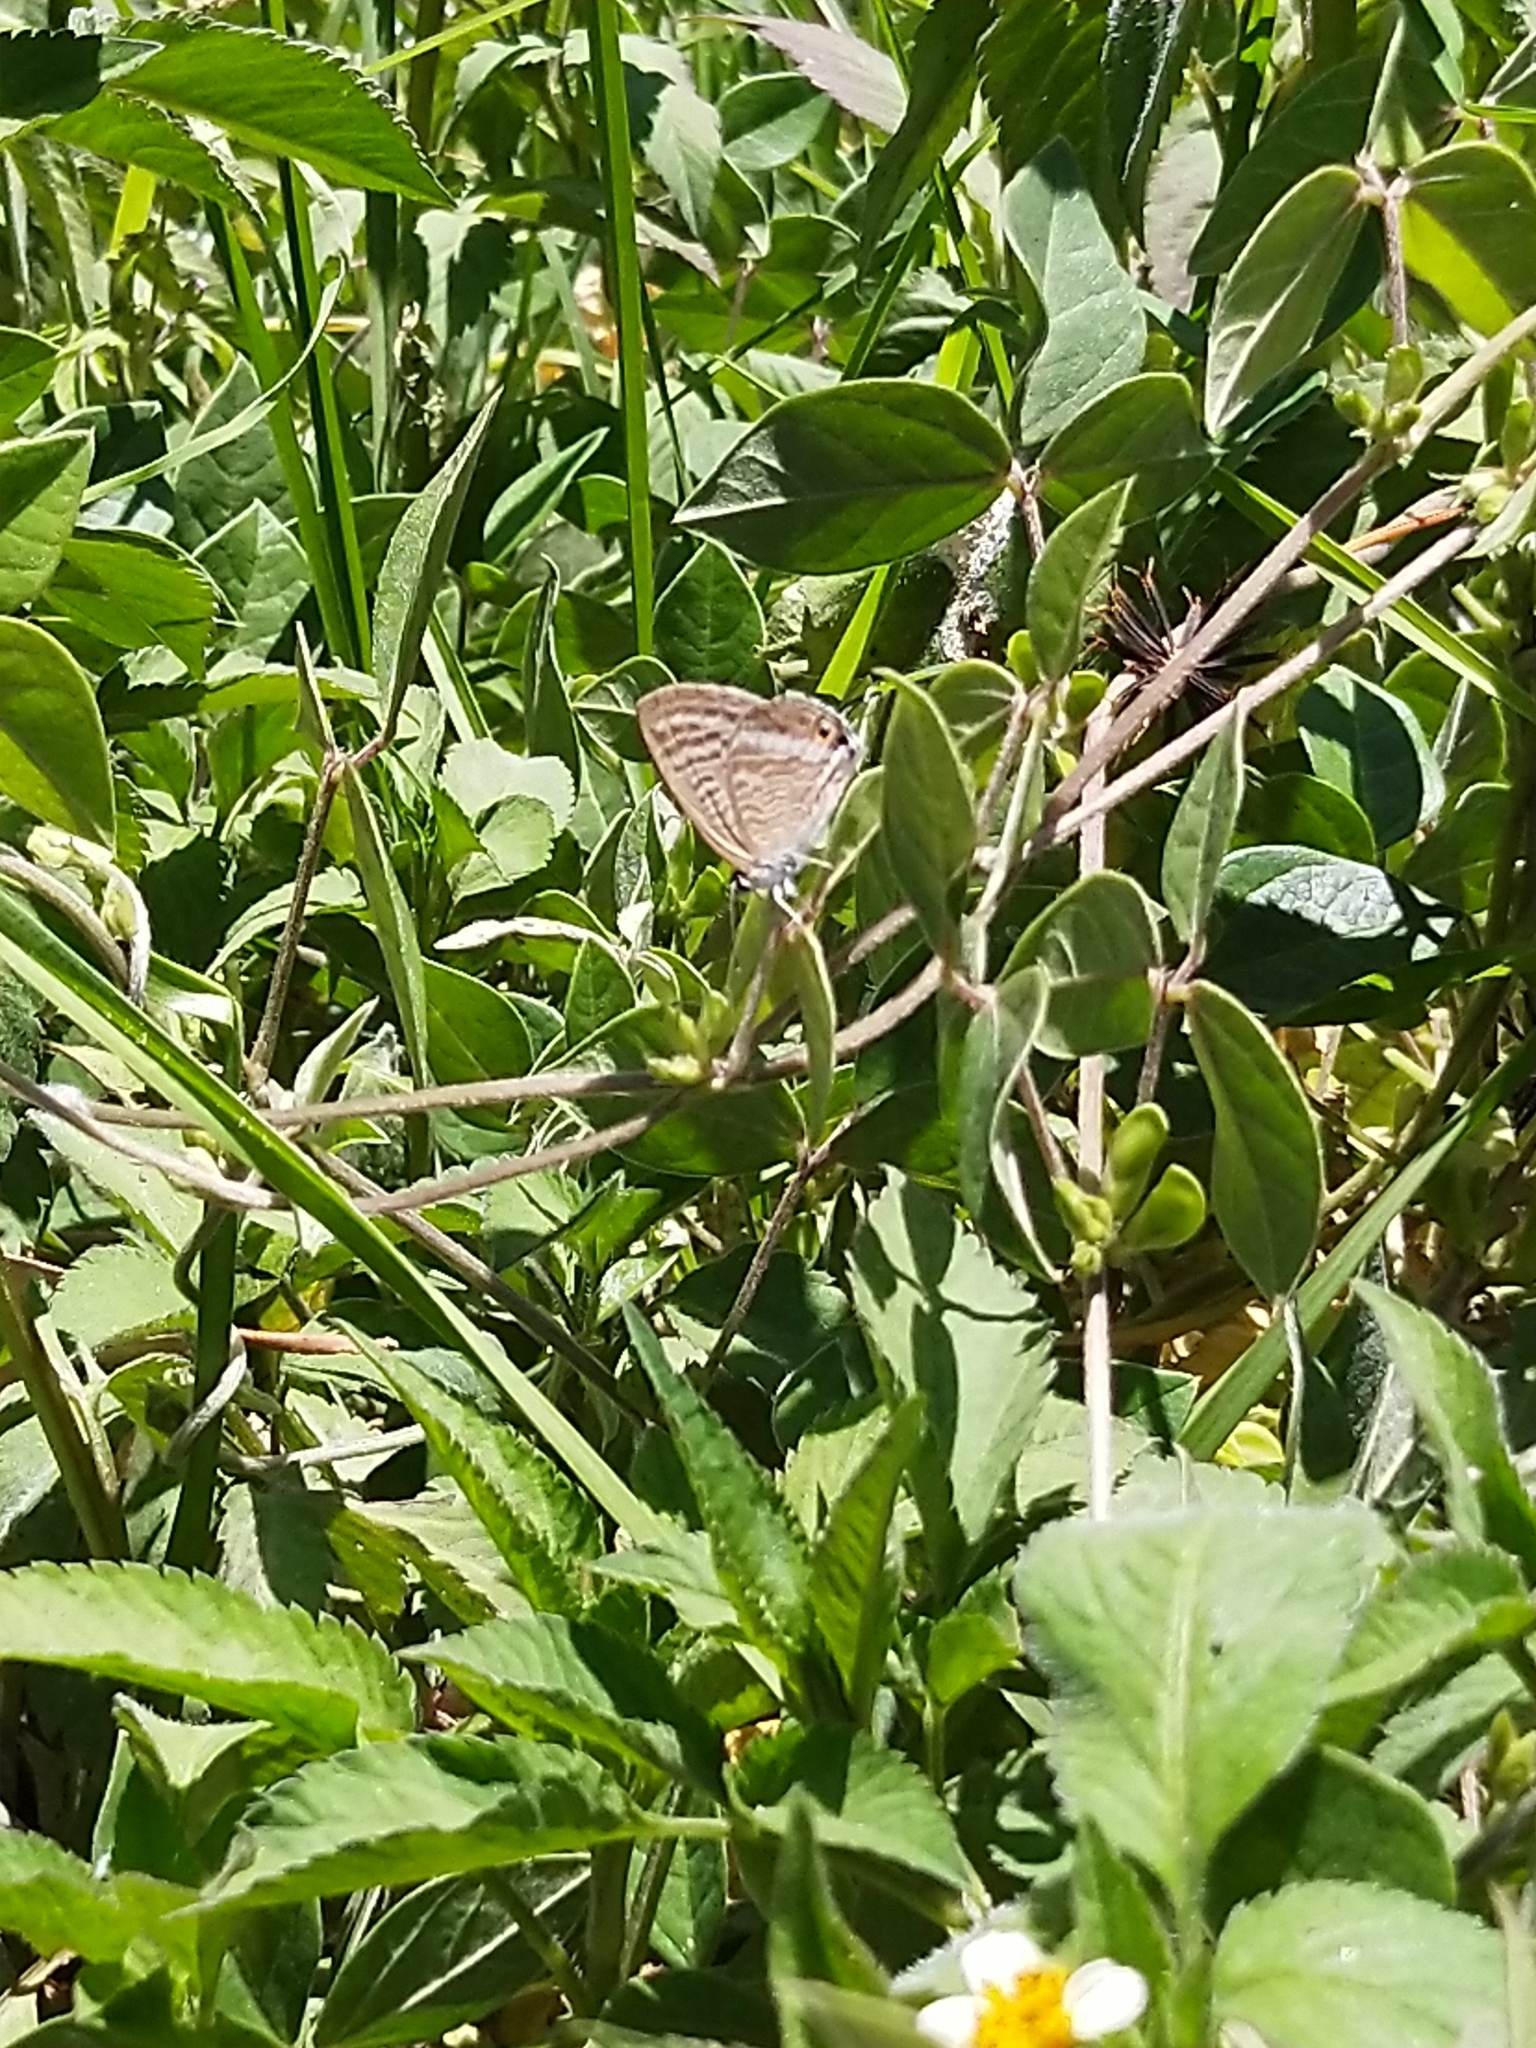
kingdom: Animalia
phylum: Arthropoda
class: Insecta
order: Lepidoptera
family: Lycaenidae
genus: Lampides
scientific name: Lampides boeticus
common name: Long-tailed blue
